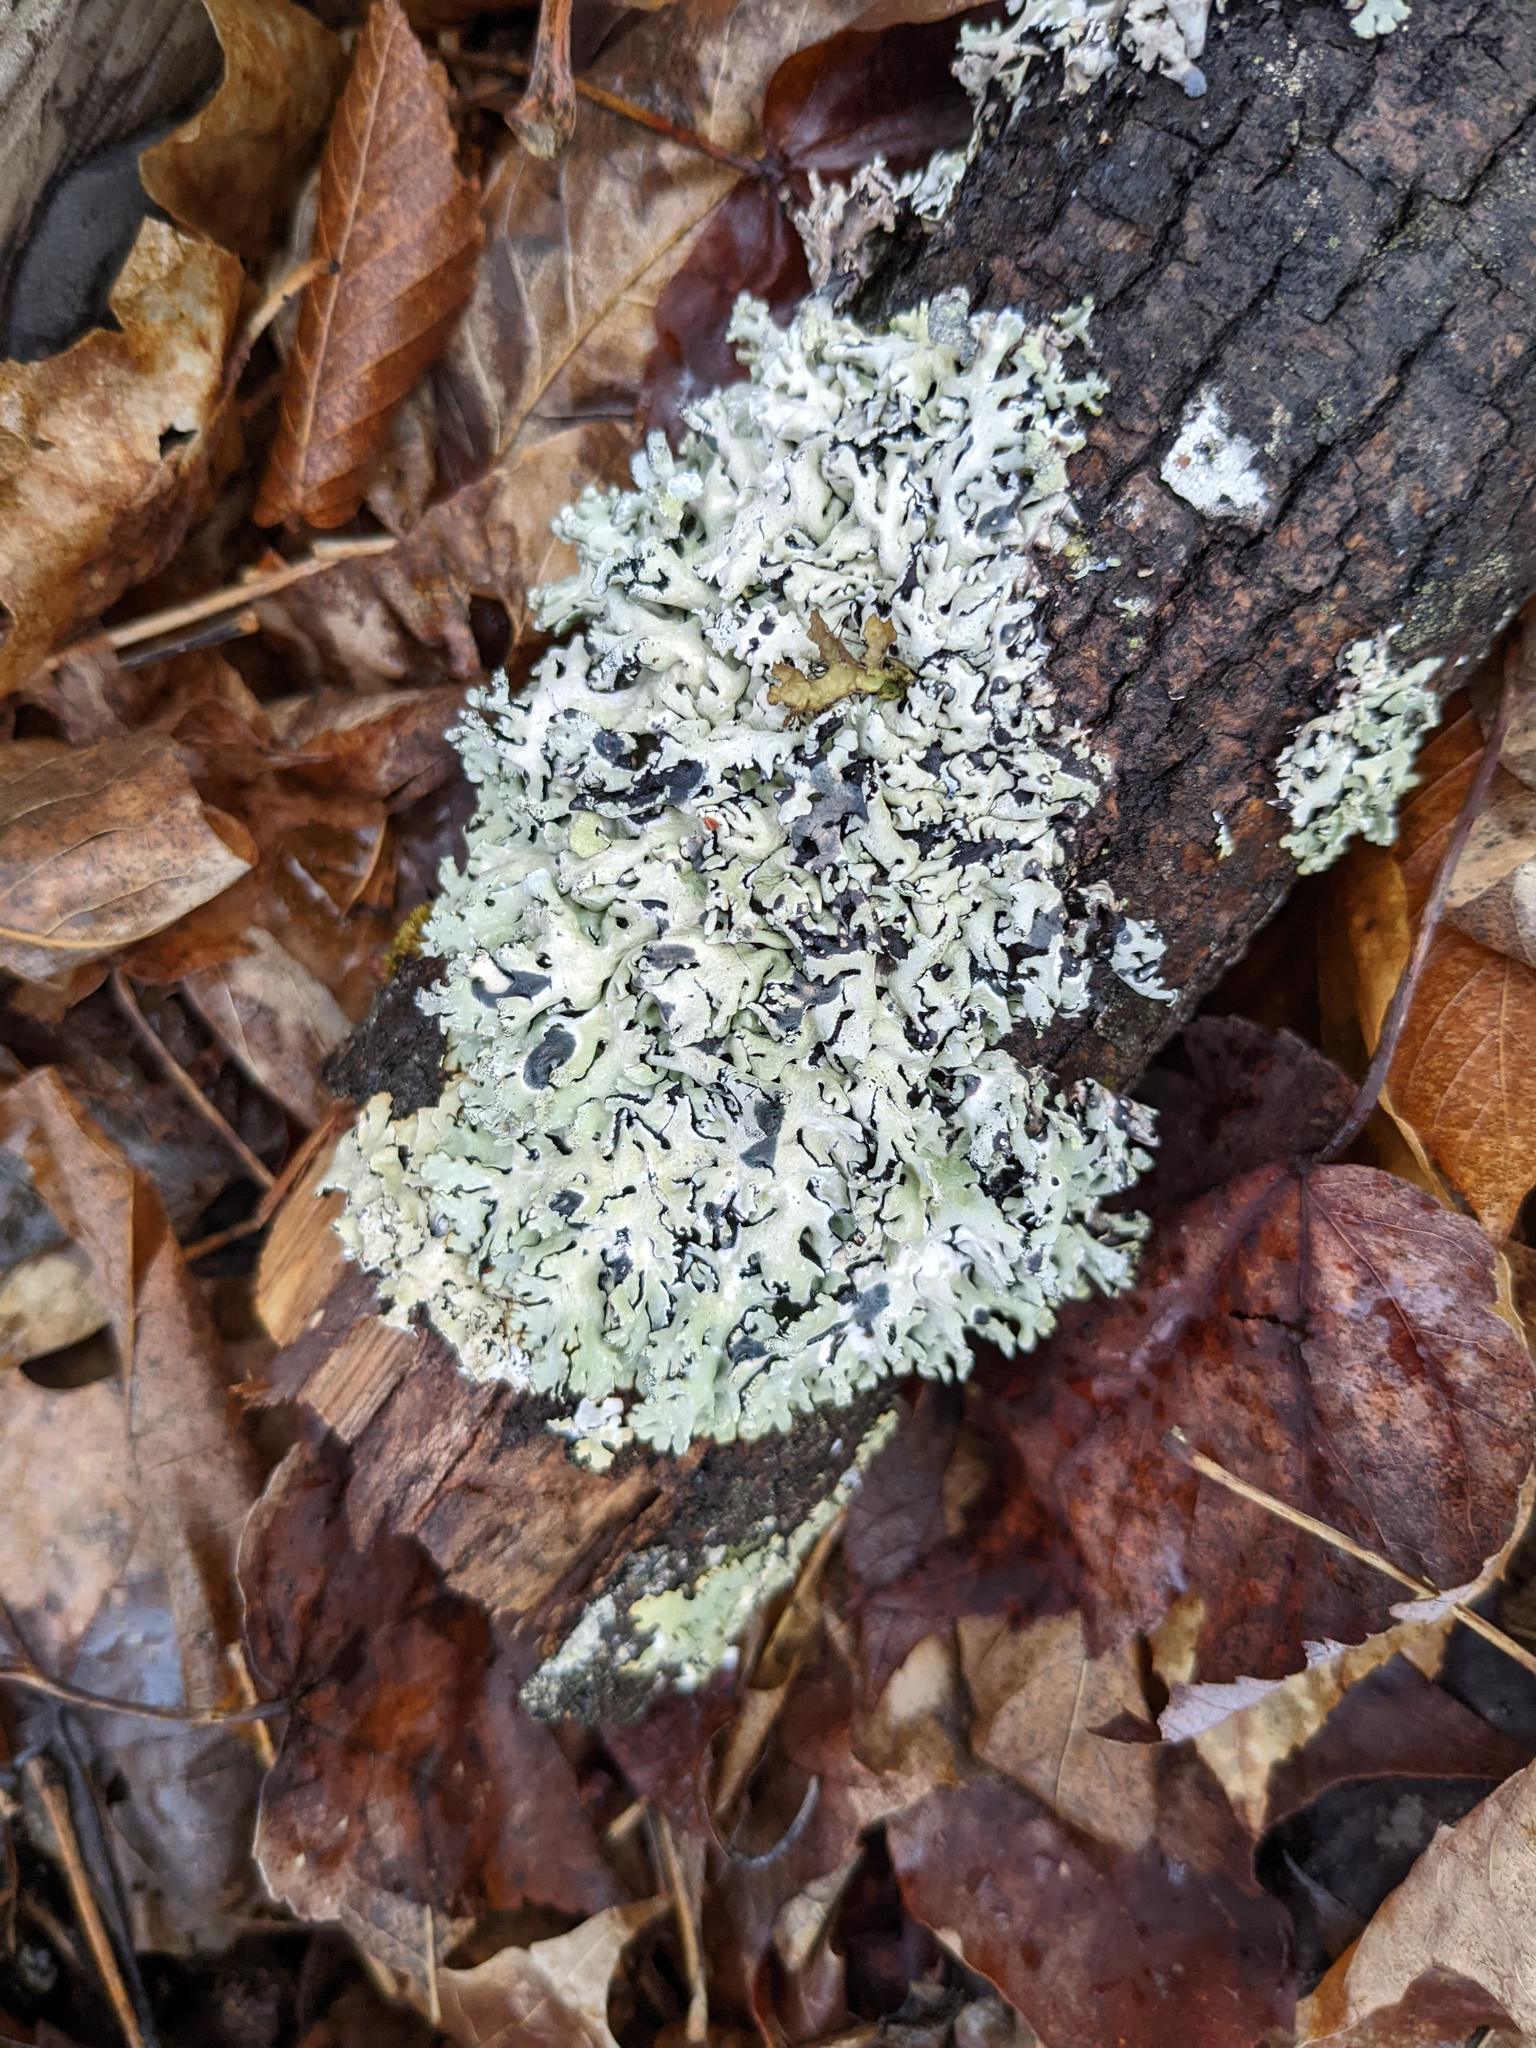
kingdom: Fungi
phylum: Ascomycota
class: Lecanoromycetes
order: Lecanorales
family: Parmeliaceae
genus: Hypogymnia
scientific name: Hypogymnia physodes
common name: Dark crottle
